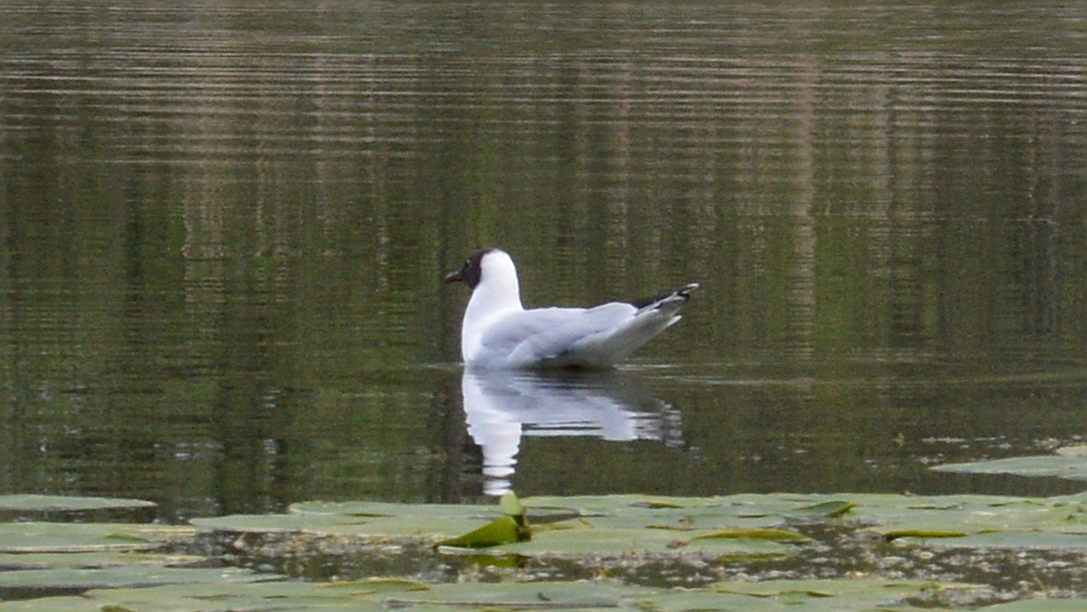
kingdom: Animalia
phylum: Chordata
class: Aves
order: Charadriiformes
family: Laridae
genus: Chroicocephalus
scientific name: Chroicocephalus ridibundus
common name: Black-headed gull
